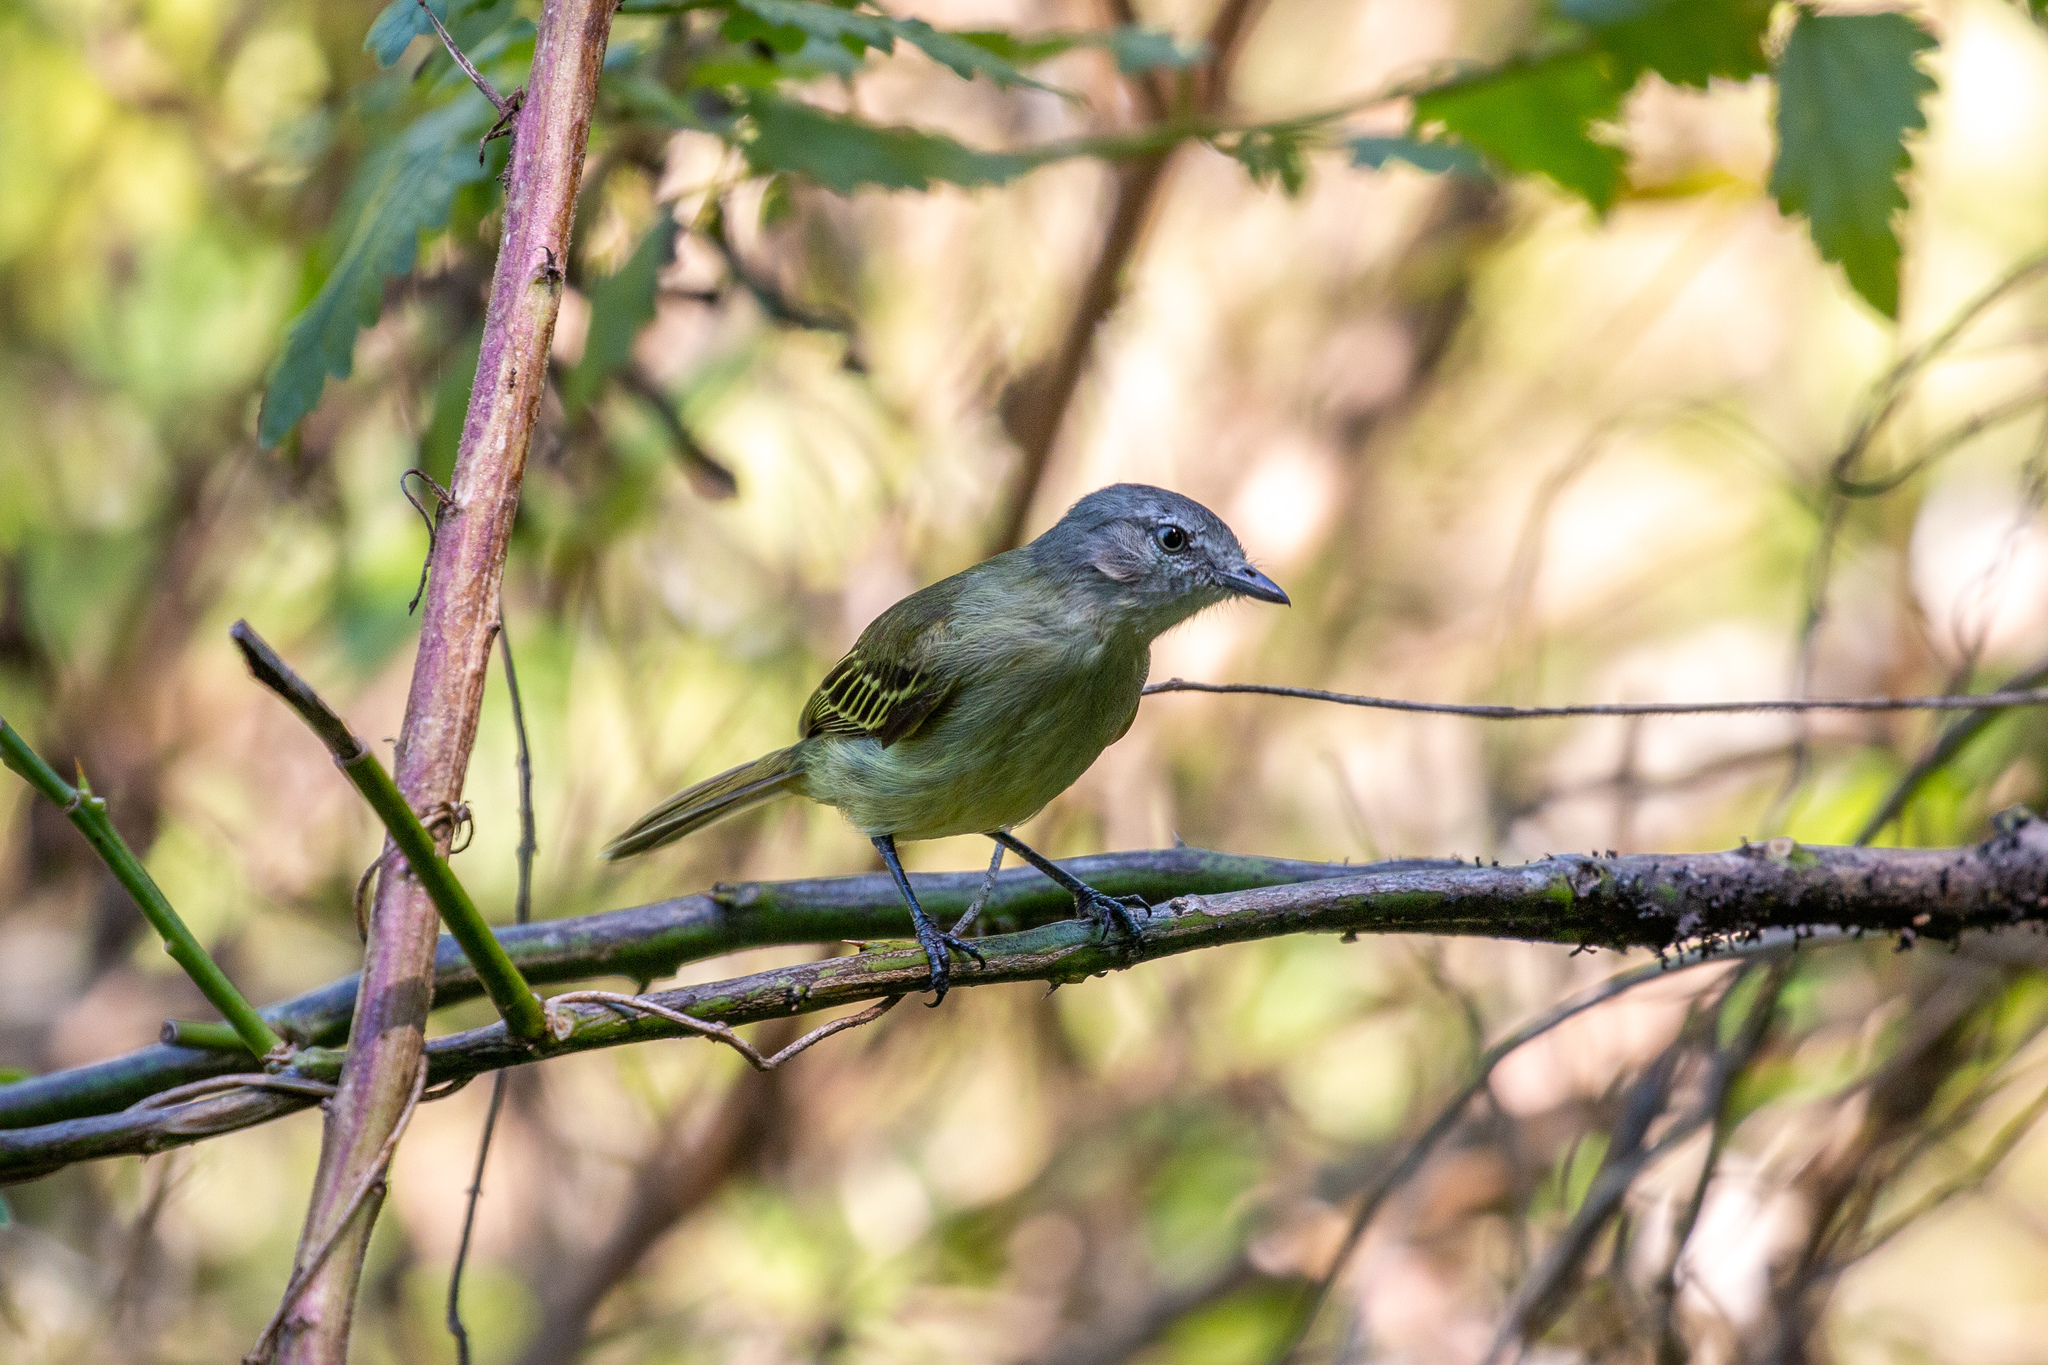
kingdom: Animalia
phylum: Chordata
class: Aves
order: Passeriformes
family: Tyrannidae
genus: Zimmerius
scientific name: Zimmerius gracilipes
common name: Slender-footed tyrannulet
